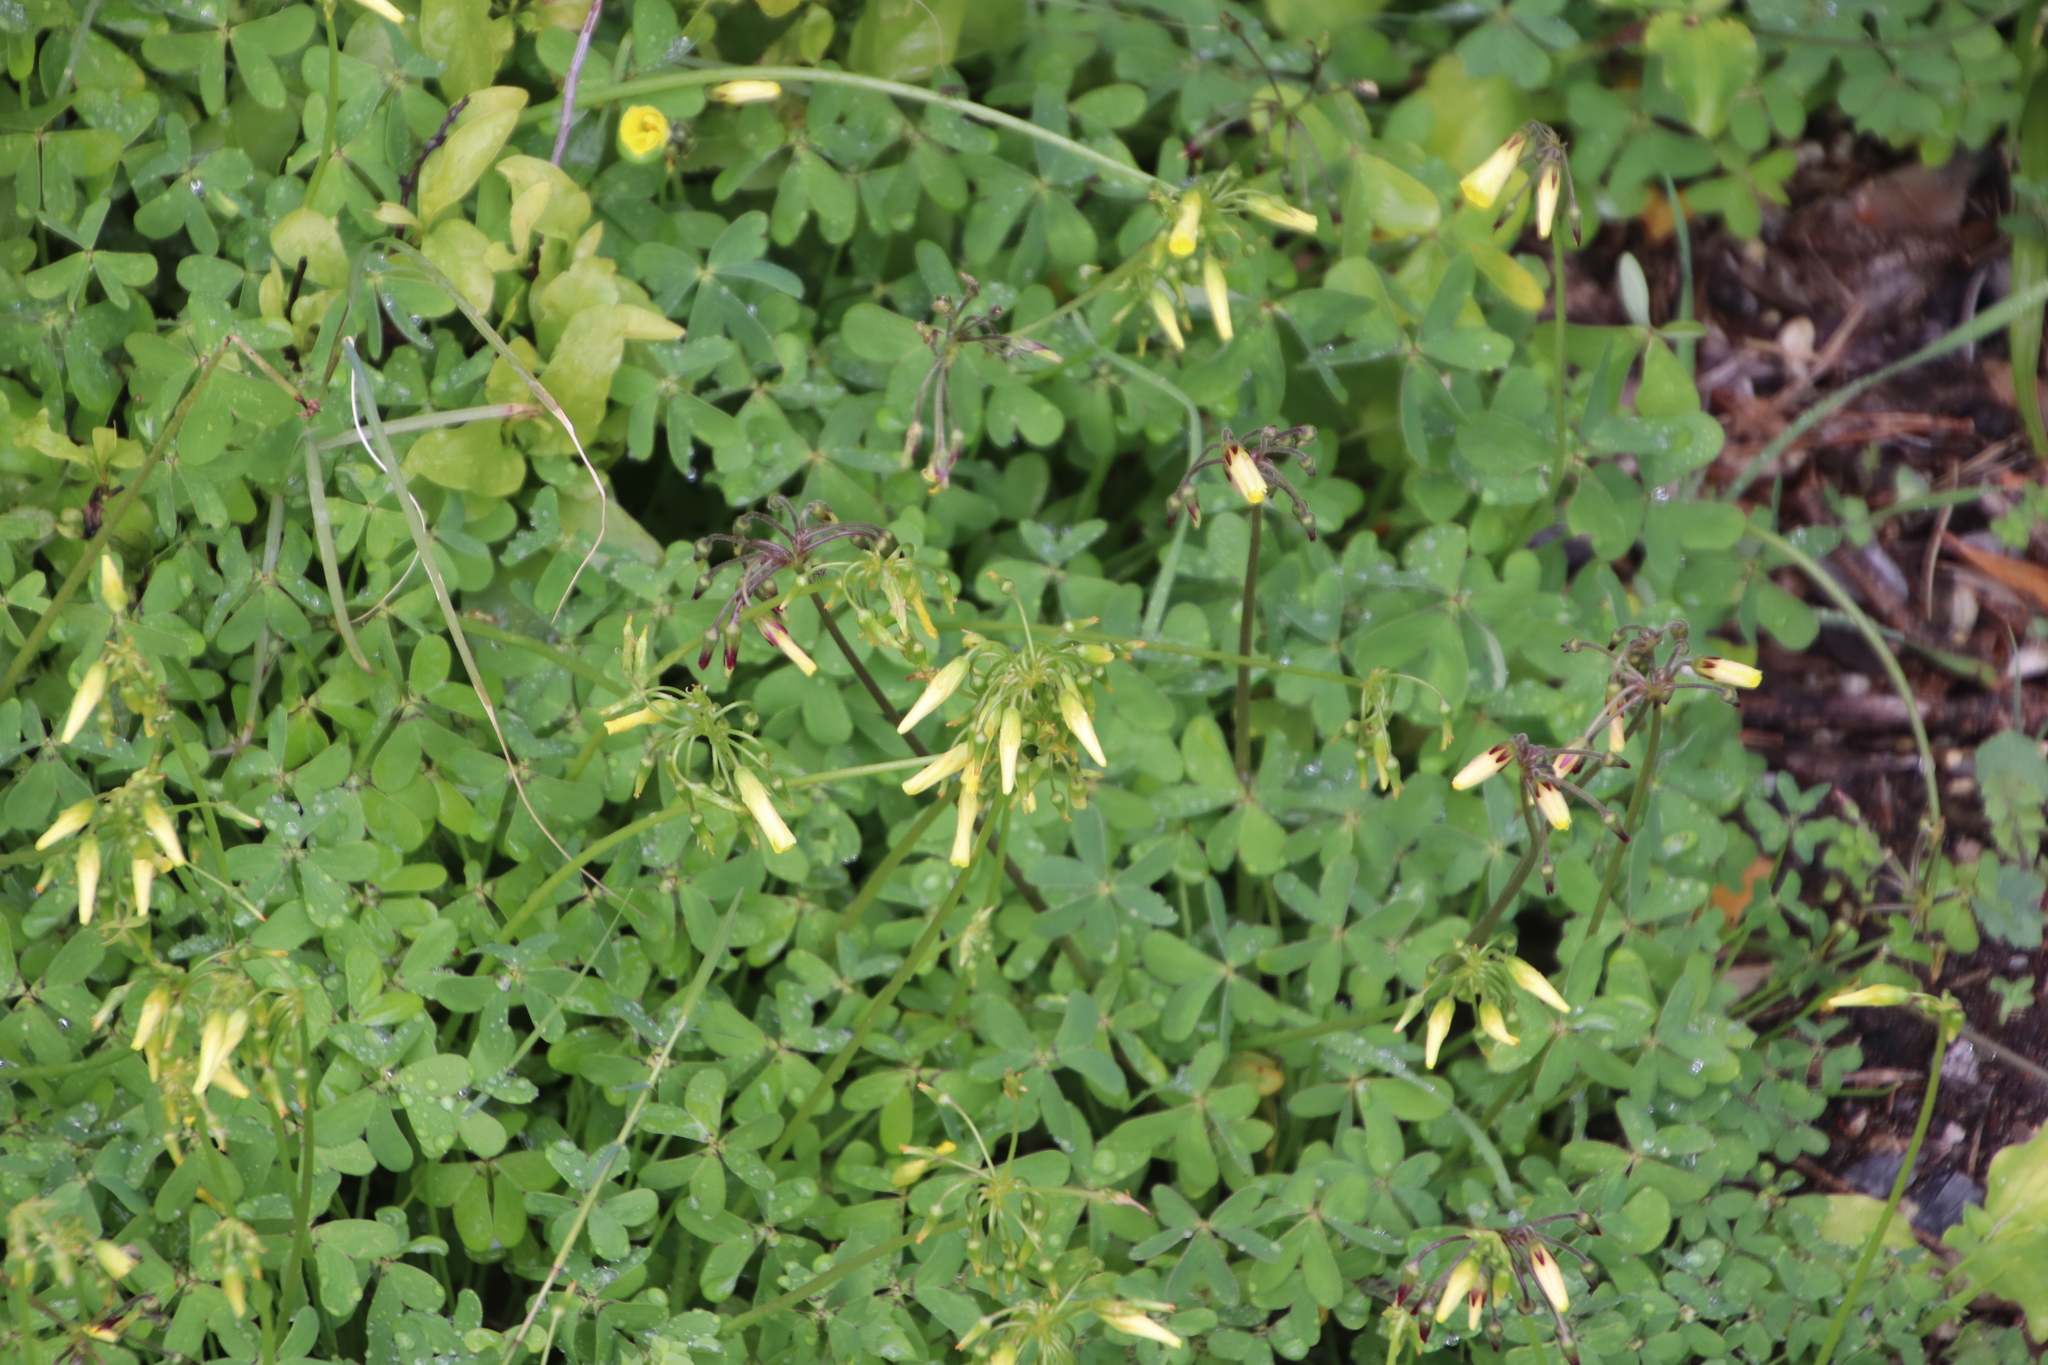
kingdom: Plantae
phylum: Tracheophyta
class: Magnoliopsida
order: Oxalidales
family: Oxalidaceae
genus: Oxalis
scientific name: Oxalis pes-caprae
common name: Bermuda-buttercup
